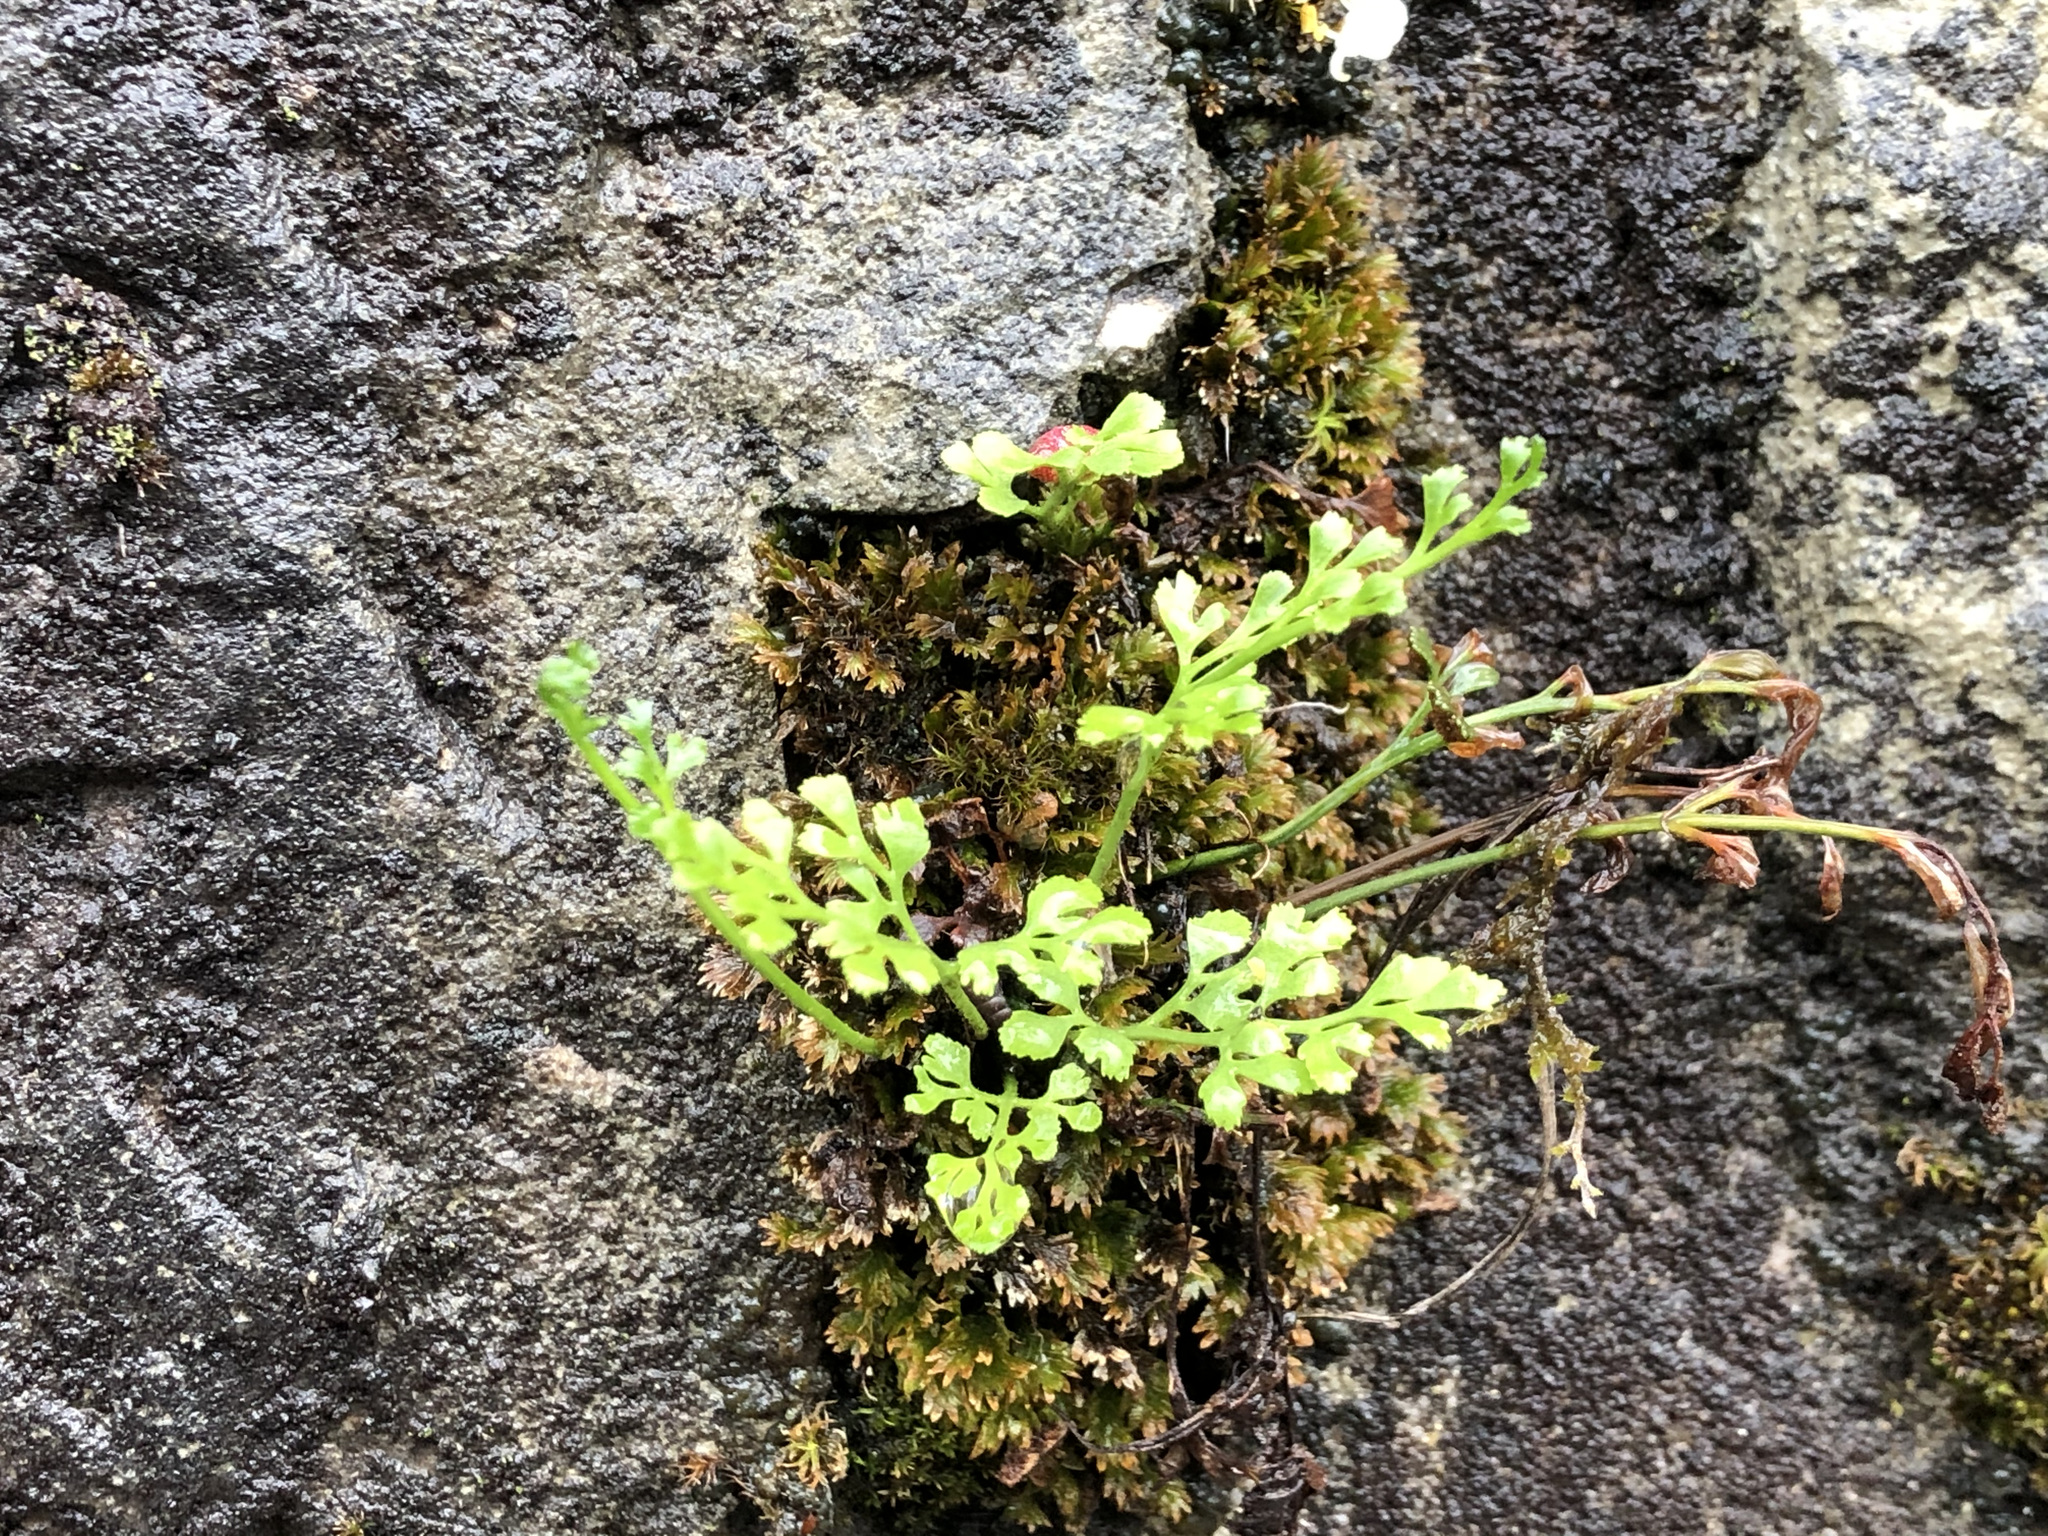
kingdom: Plantae
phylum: Tracheophyta
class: Polypodiopsida
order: Polypodiales
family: Aspleniaceae
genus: Asplenium
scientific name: Asplenium ruta-muraria
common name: Wall-rue
